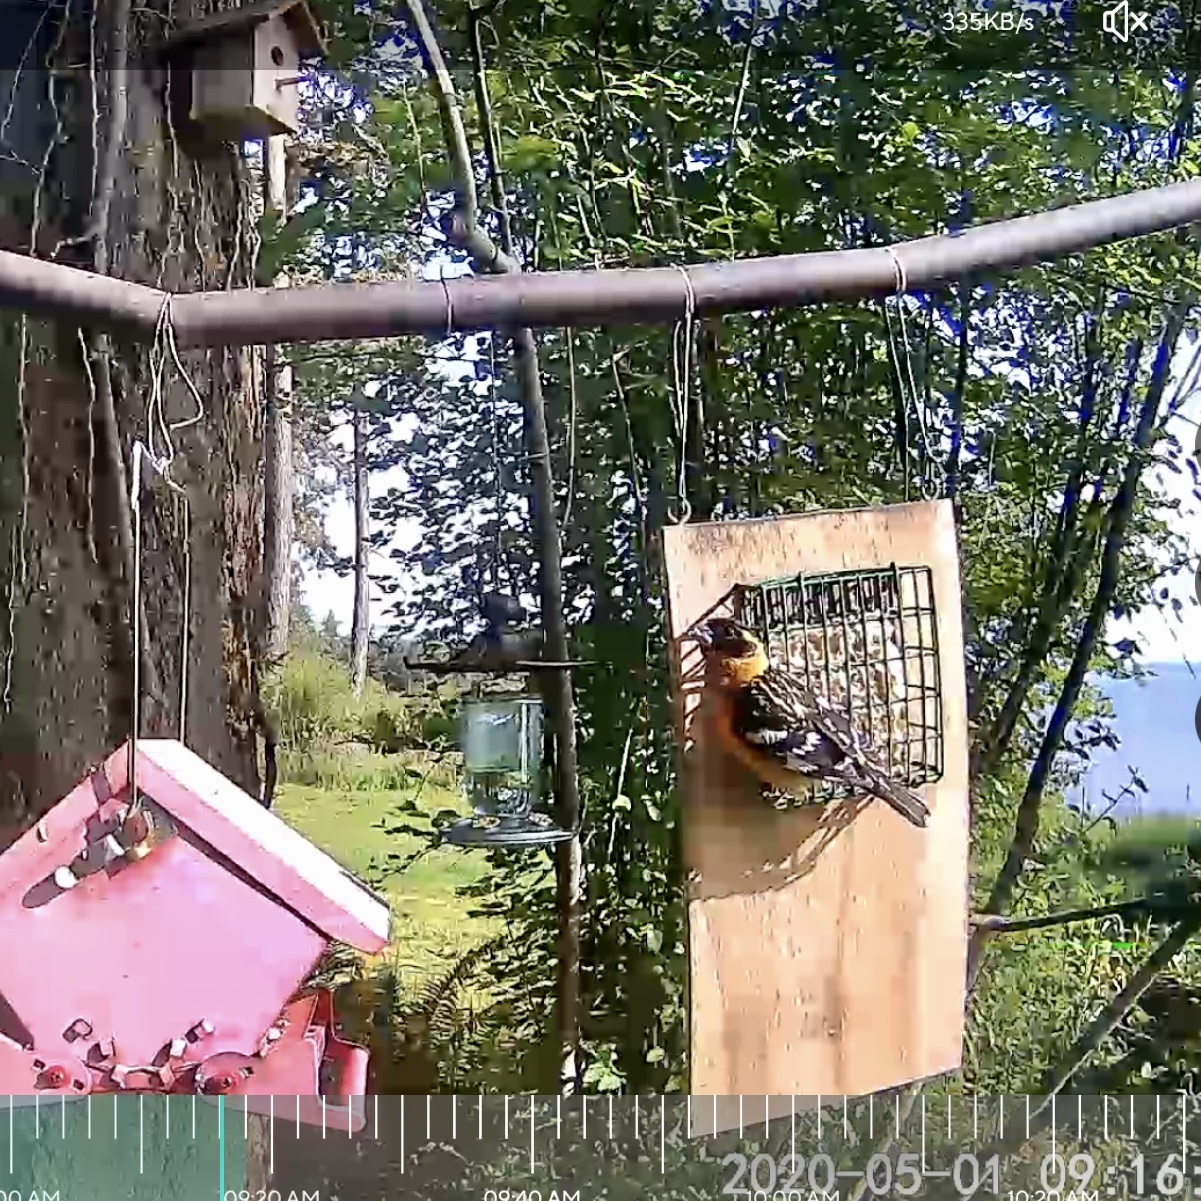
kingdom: Animalia
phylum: Chordata
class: Aves
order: Passeriformes
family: Cardinalidae
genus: Pheucticus
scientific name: Pheucticus melanocephalus
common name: Black-headed grosbeak
